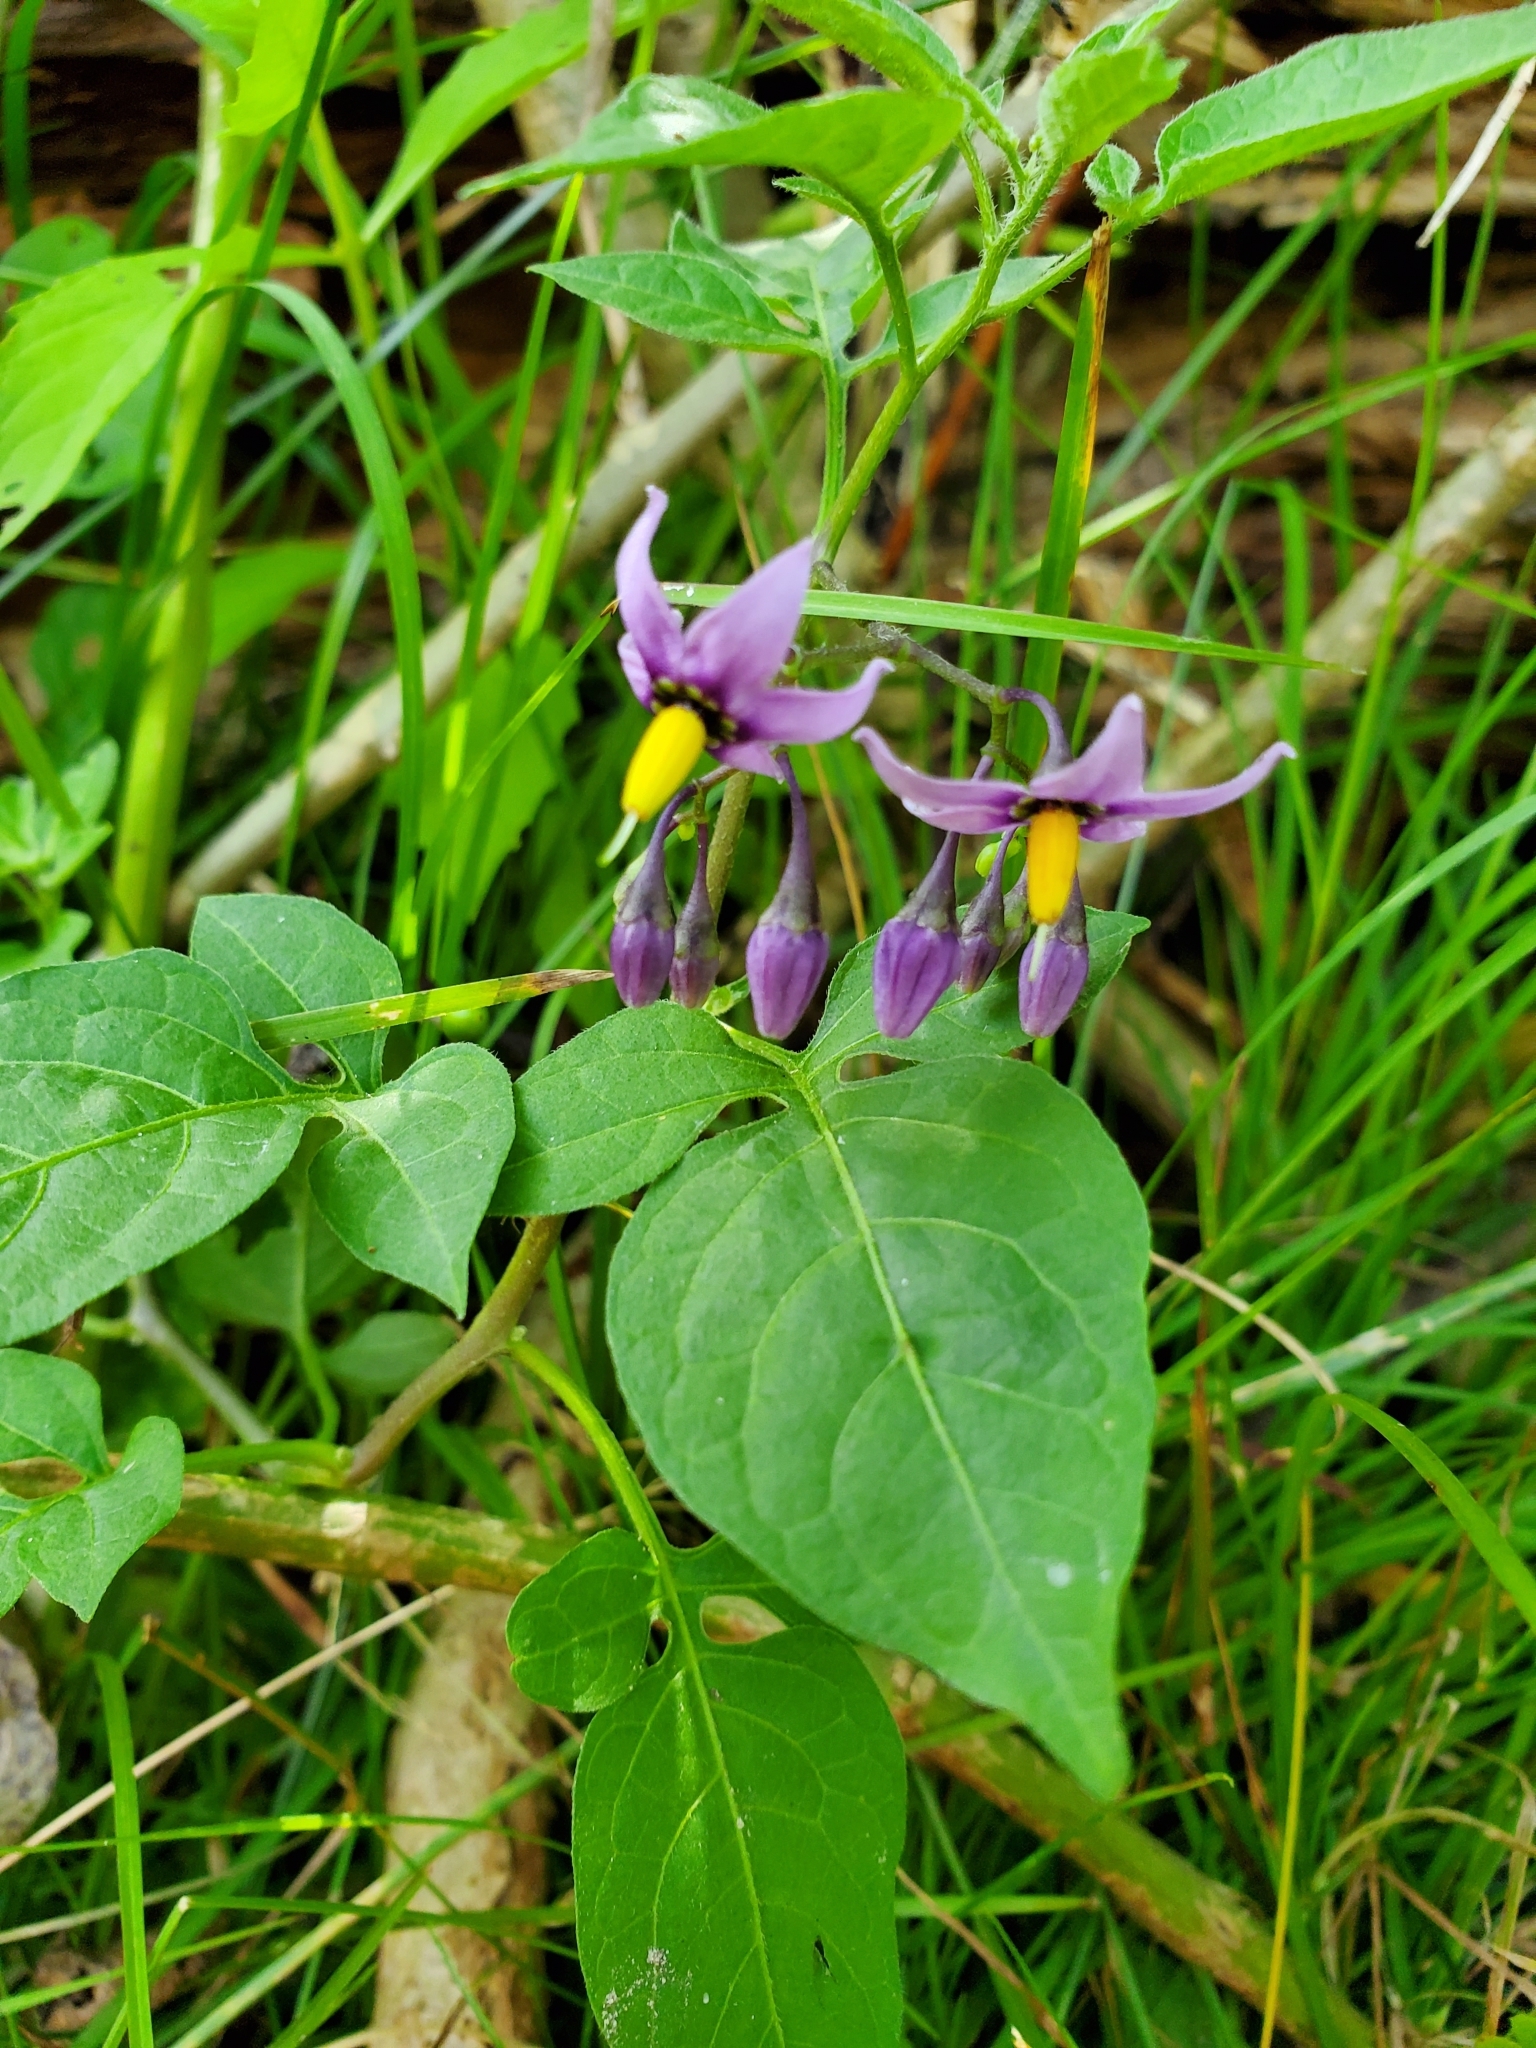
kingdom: Plantae
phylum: Tracheophyta
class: Magnoliopsida
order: Solanales
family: Solanaceae
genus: Solanum
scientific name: Solanum dulcamara
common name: Climbing nightshade
